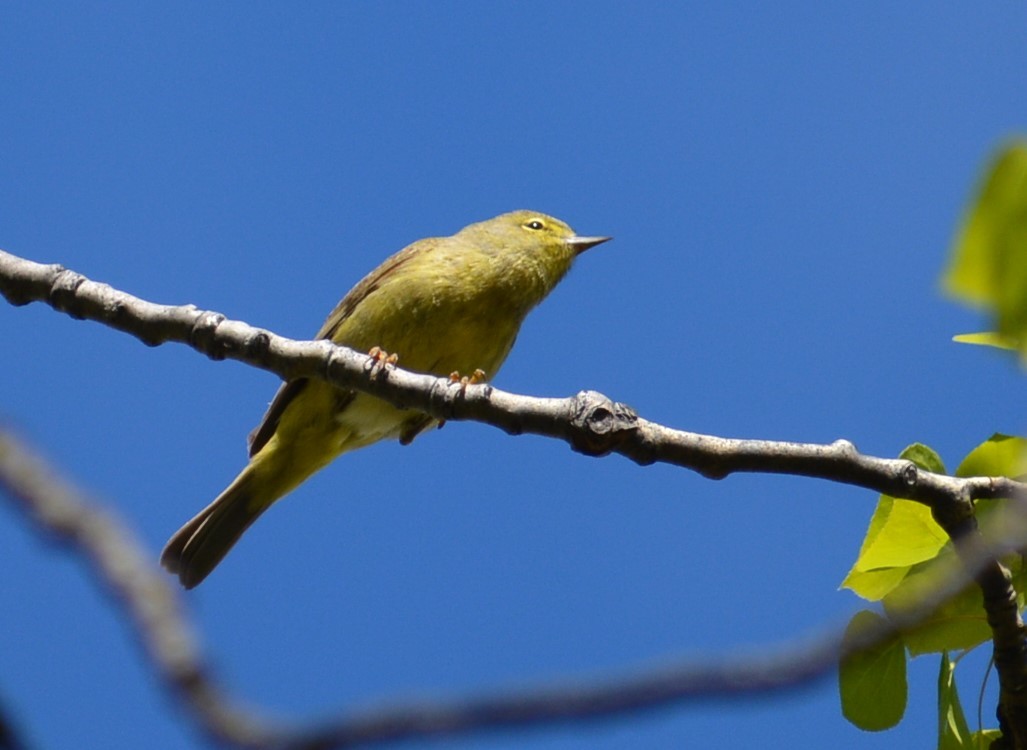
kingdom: Animalia
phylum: Chordata
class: Aves
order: Passeriformes
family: Parulidae
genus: Leiothlypis
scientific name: Leiothlypis celata
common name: Orange-crowned warbler
